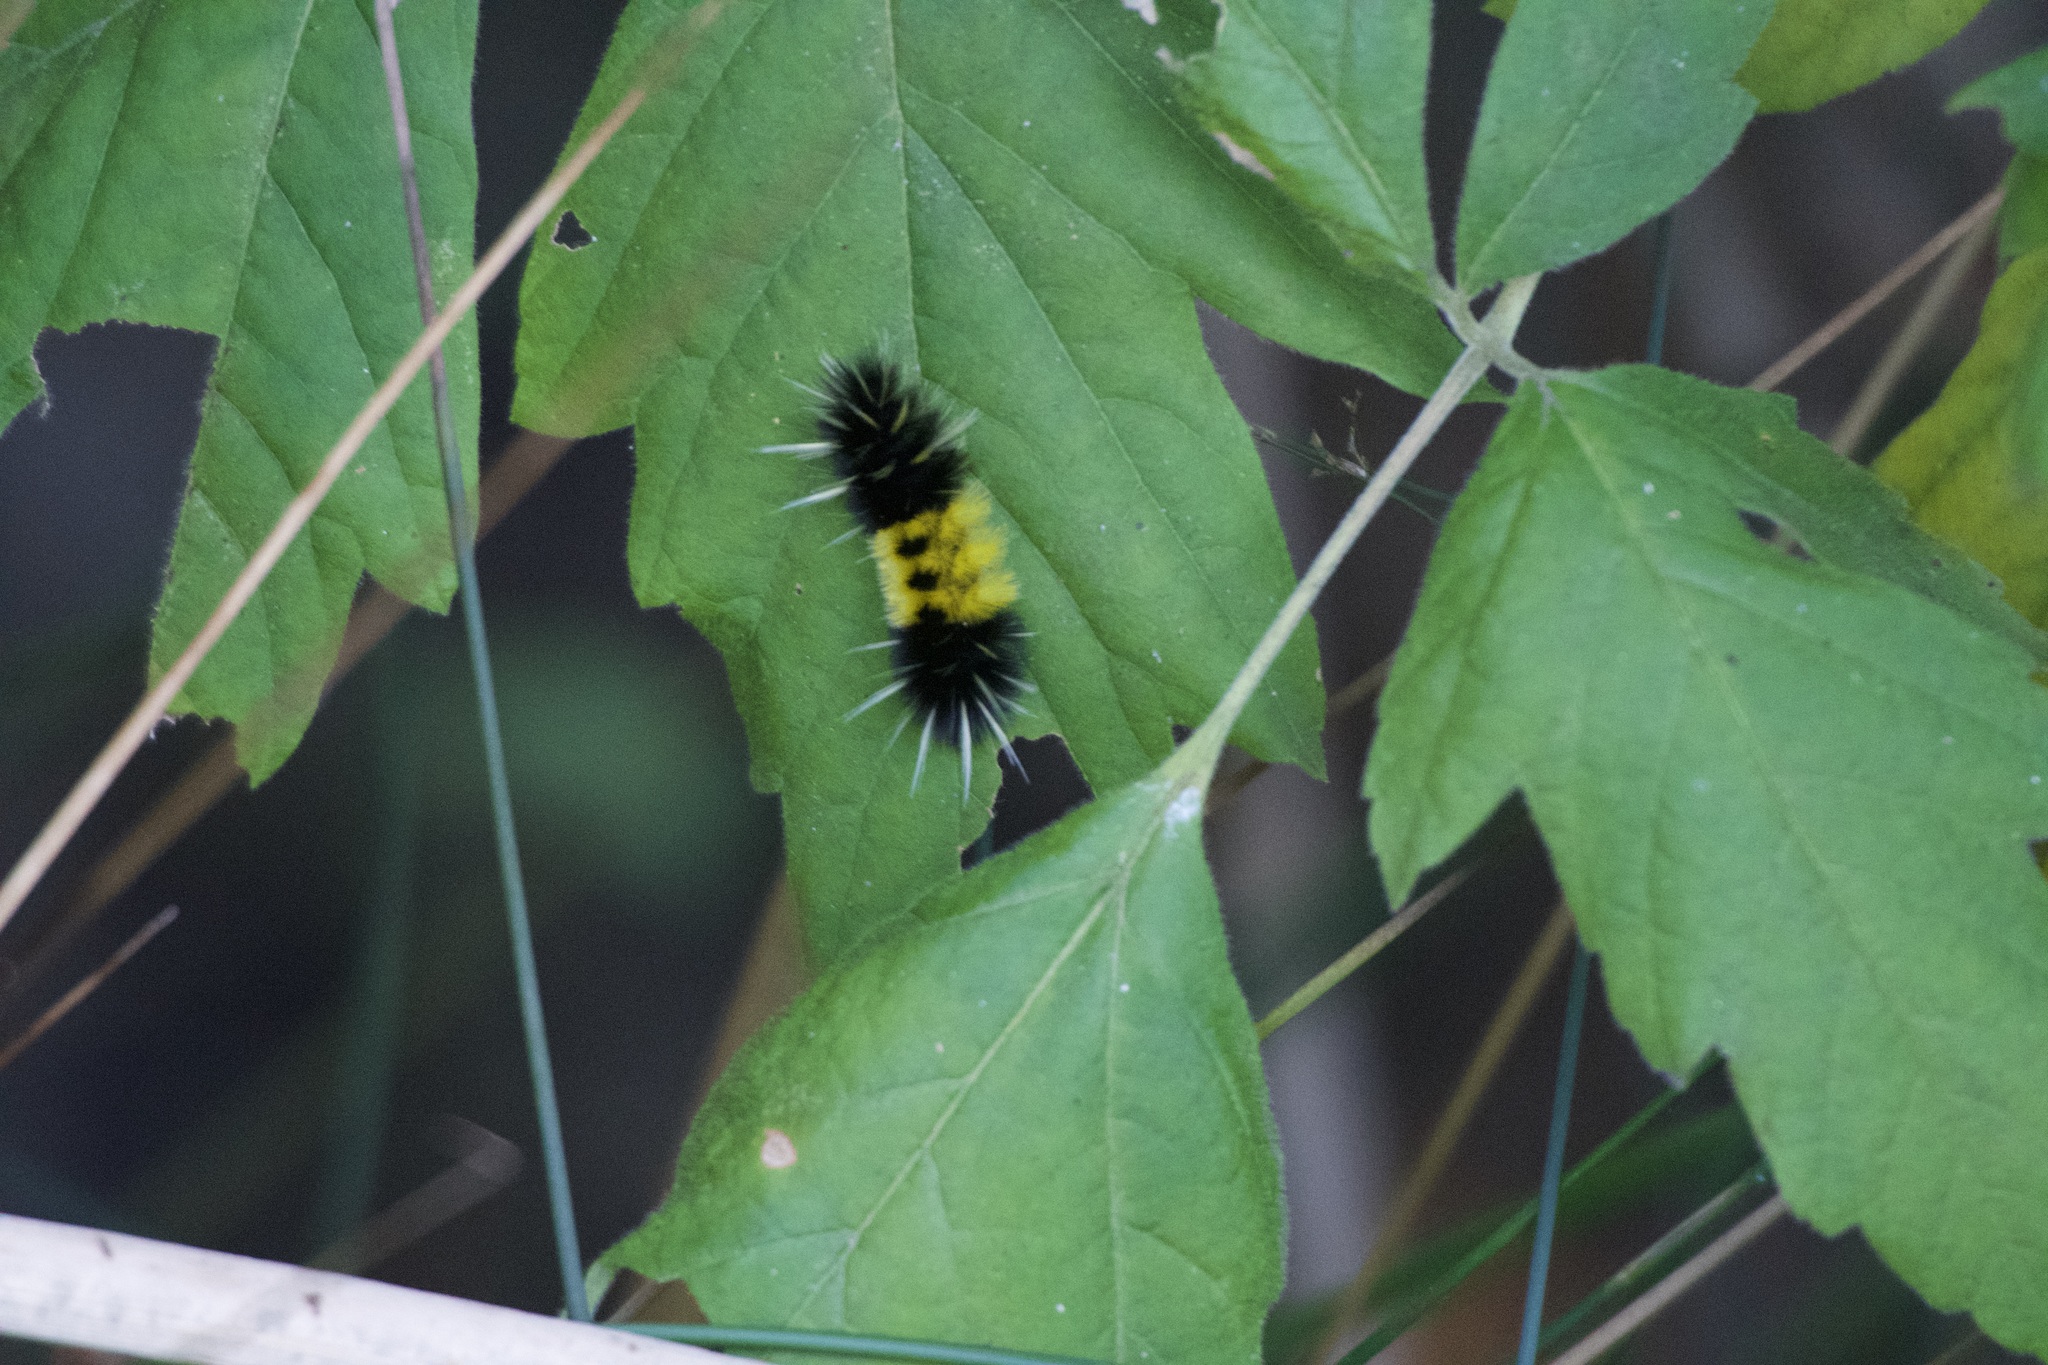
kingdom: Animalia
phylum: Arthropoda
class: Insecta
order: Lepidoptera
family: Erebidae
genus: Lophocampa
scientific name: Lophocampa maculata
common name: Spotted tussock moth
